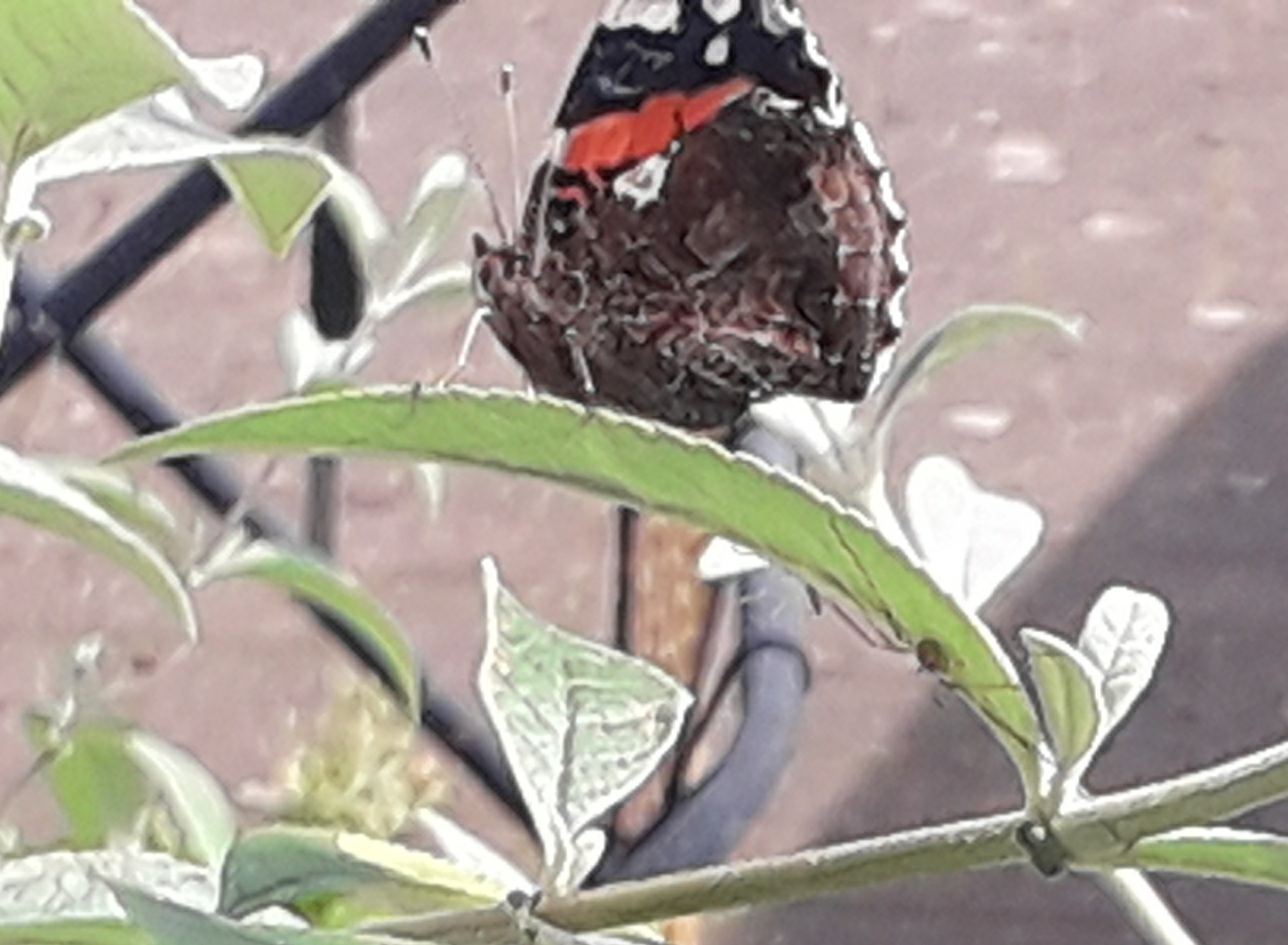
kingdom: Animalia
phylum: Arthropoda
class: Insecta
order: Lepidoptera
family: Nymphalidae
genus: Vanessa
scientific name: Vanessa atalanta
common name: Red admiral
